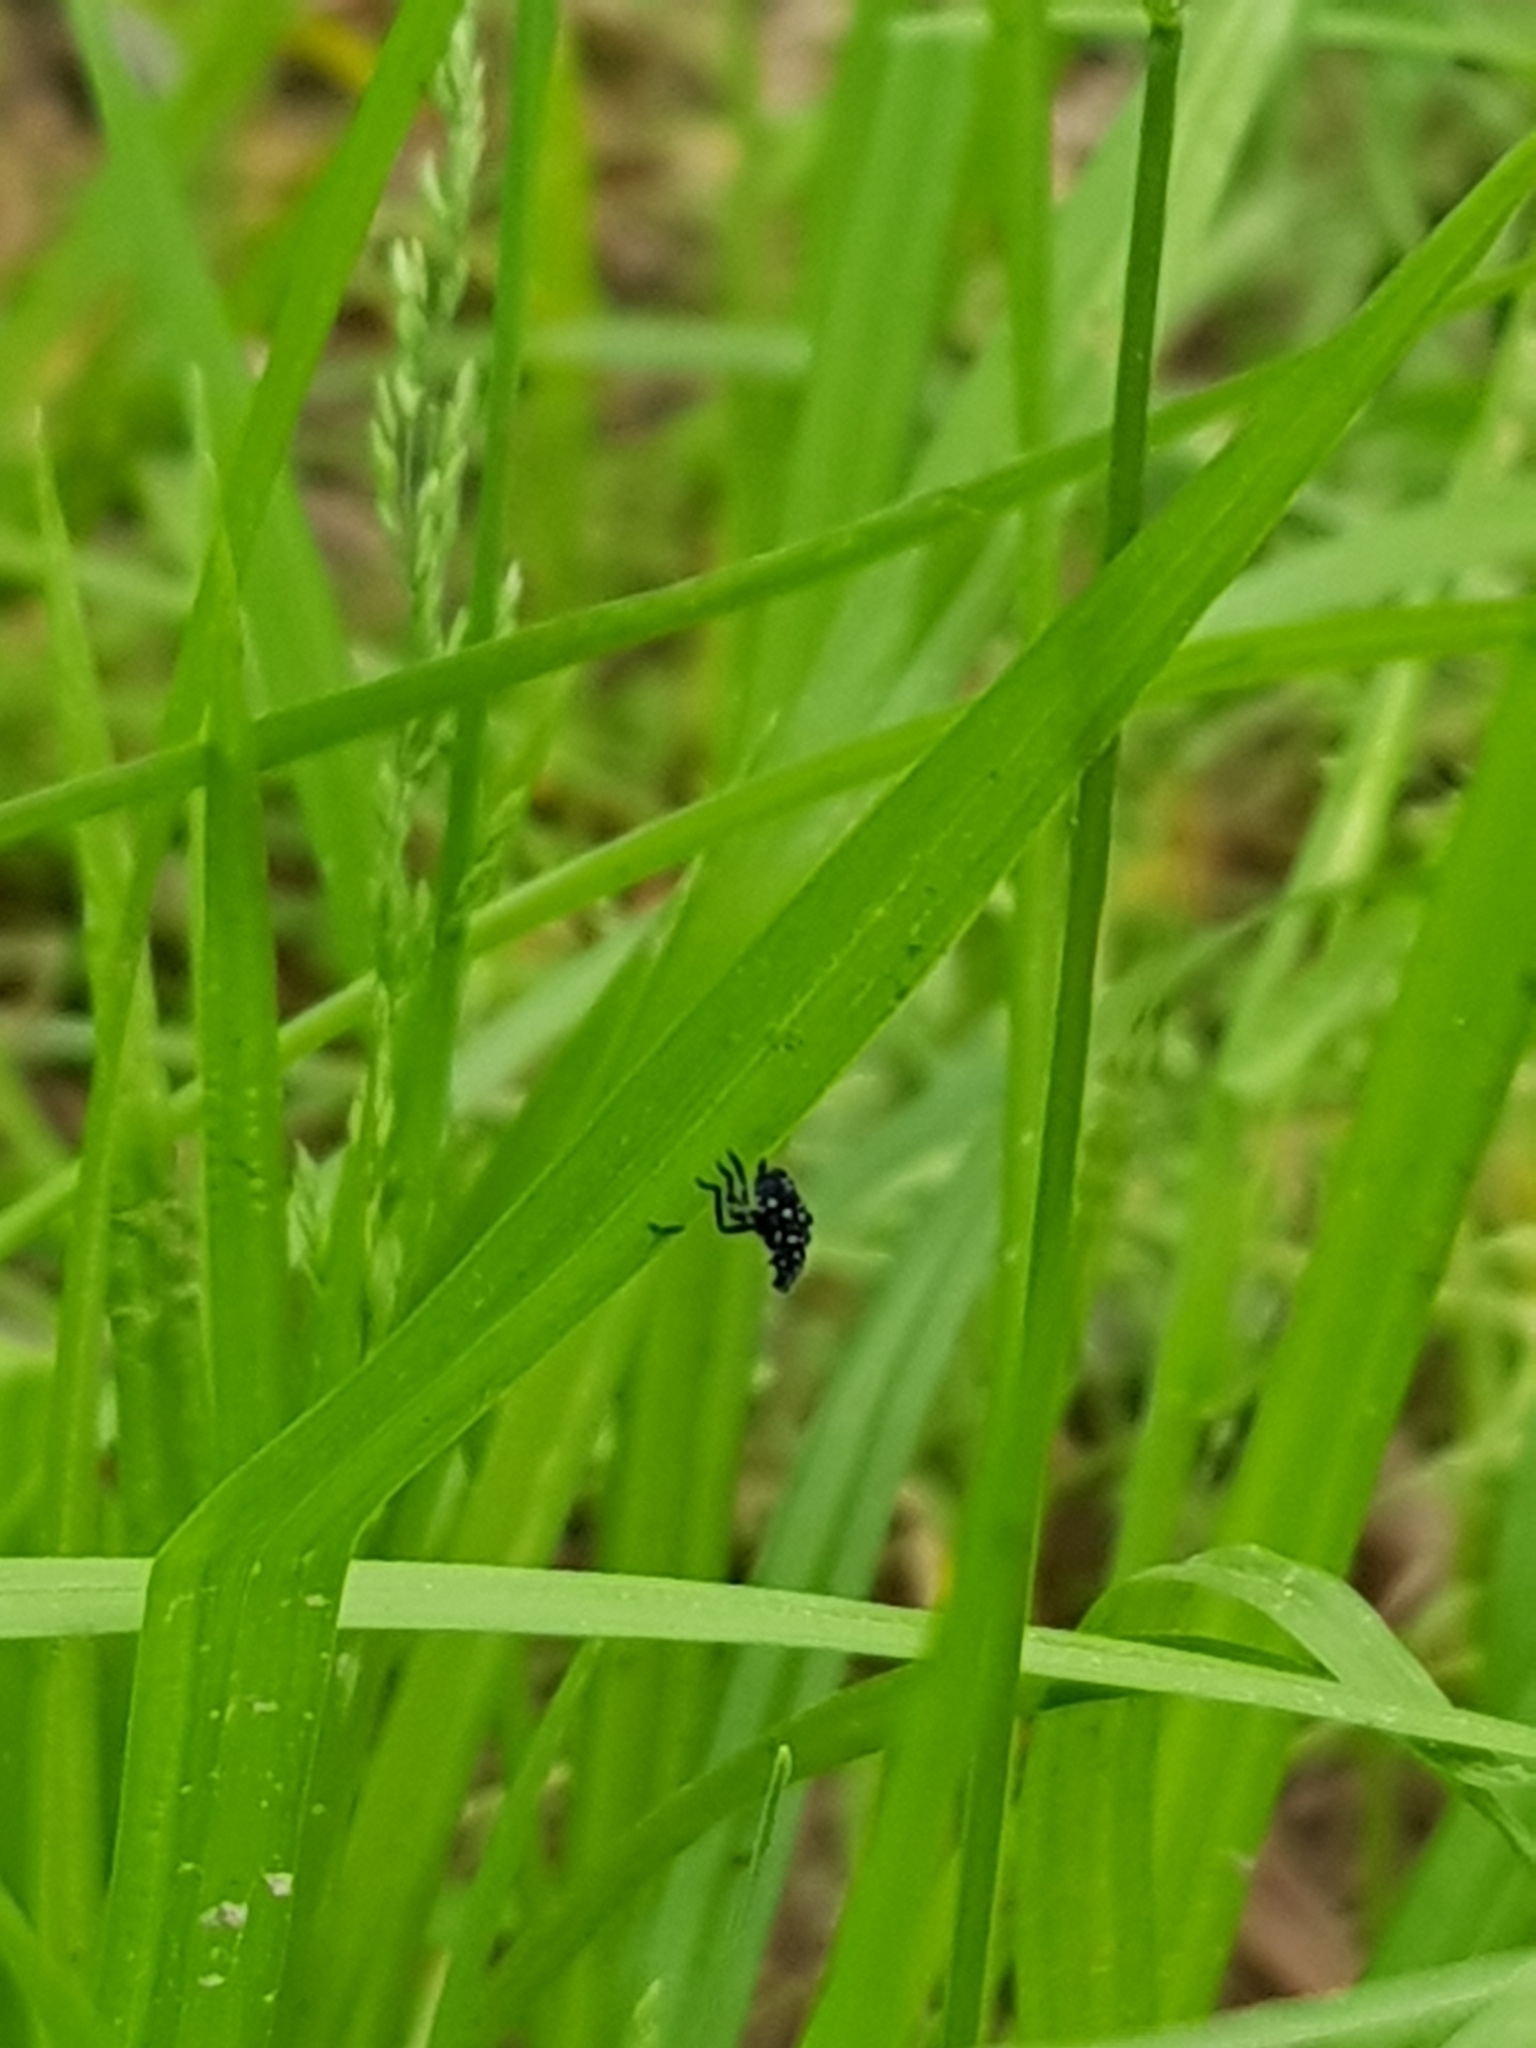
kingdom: Animalia
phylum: Arthropoda
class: Insecta
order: Hemiptera
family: Fulgoridae
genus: Lycorma
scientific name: Lycorma delicatula
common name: Spotted lanternfly
